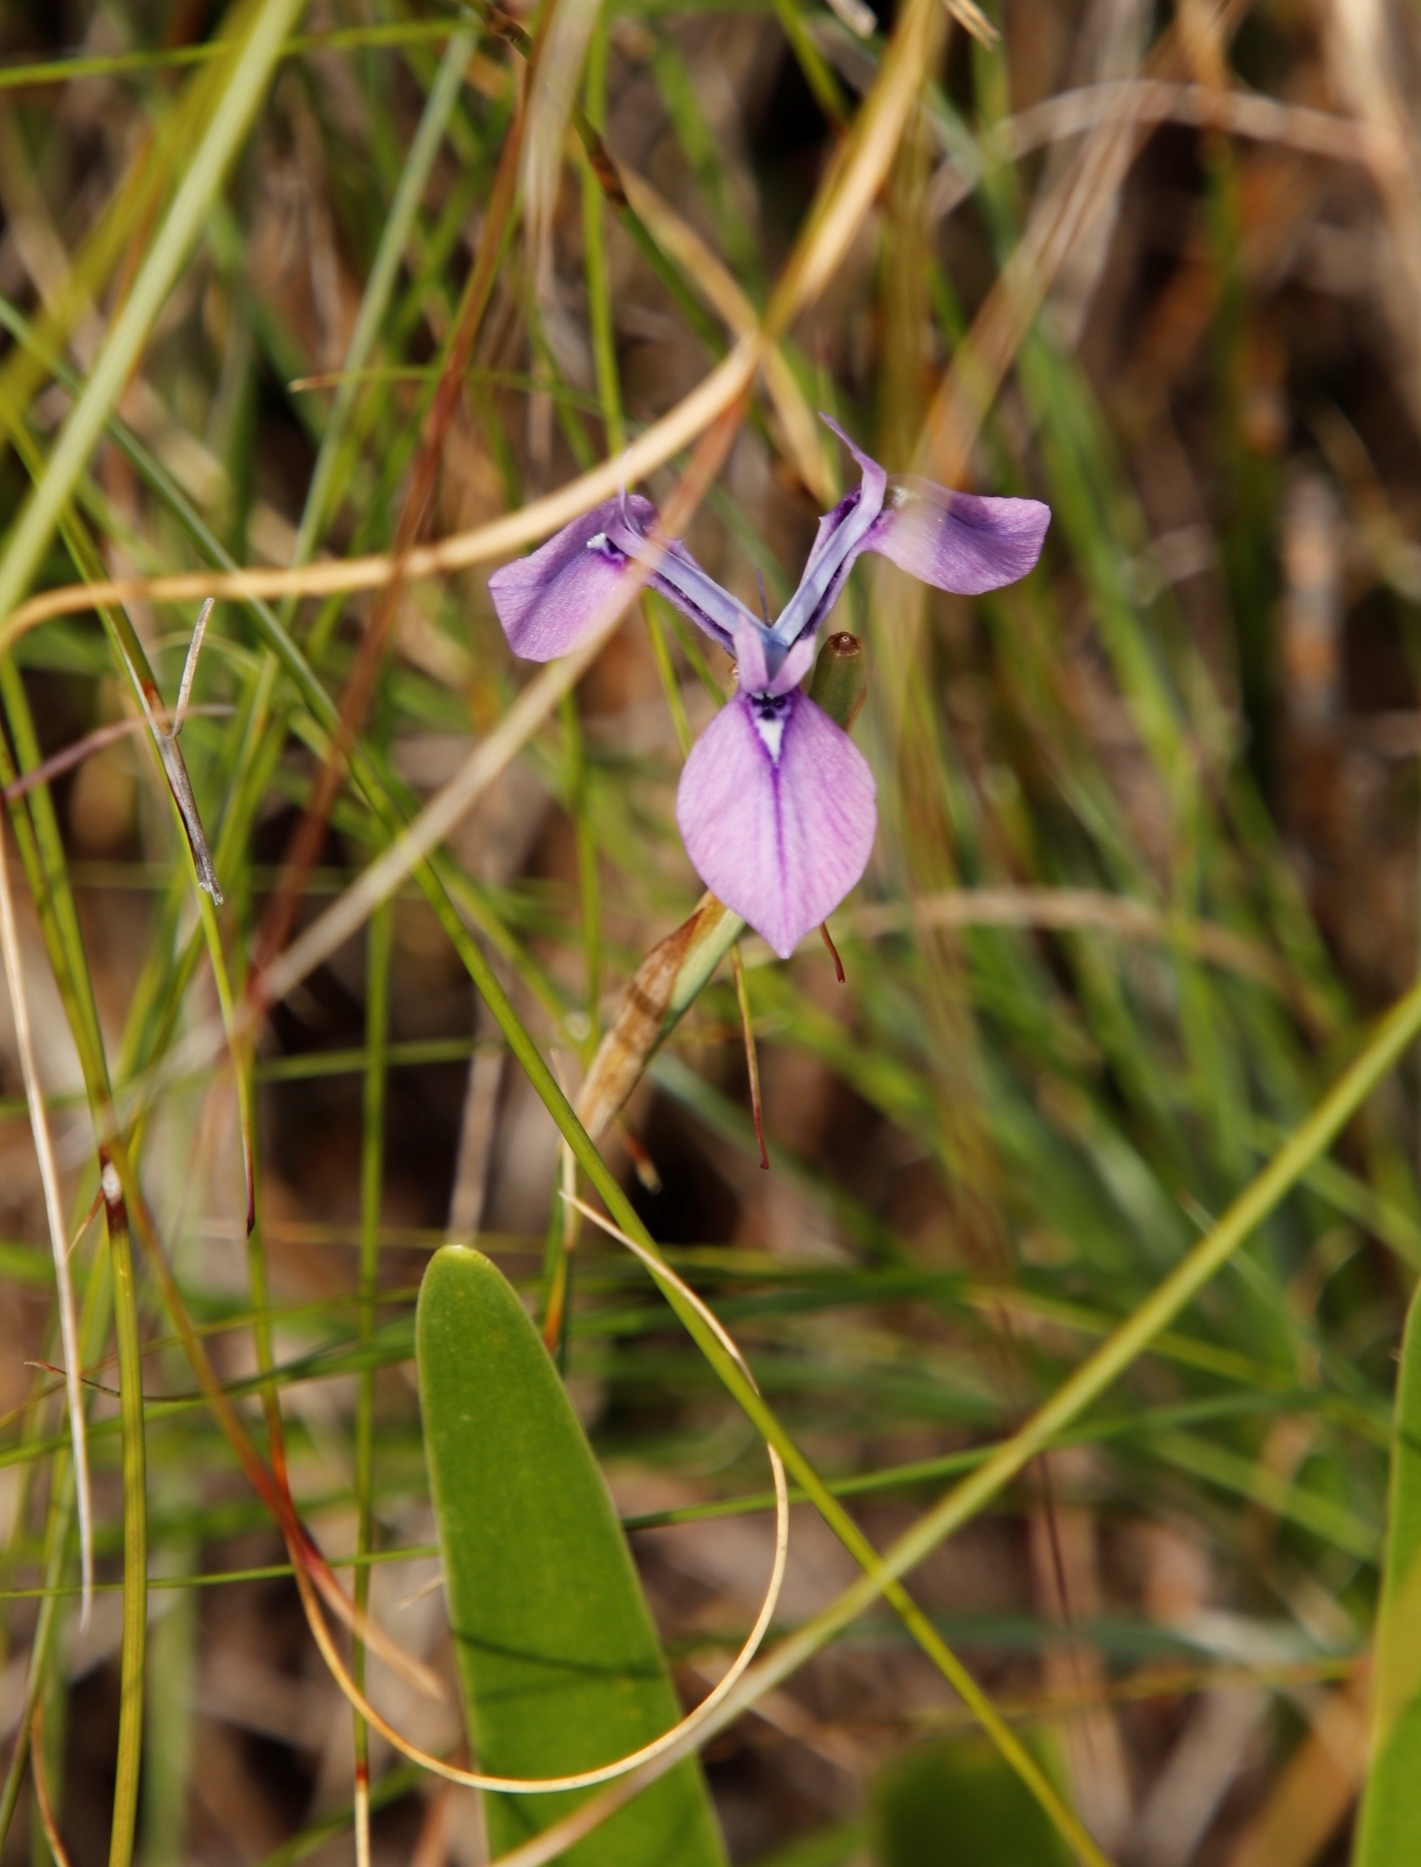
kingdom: Plantae
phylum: Tracheophyta
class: Liliopsida
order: Asparagales
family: Iridaceae
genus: Moraea
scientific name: Moraea tripetala
